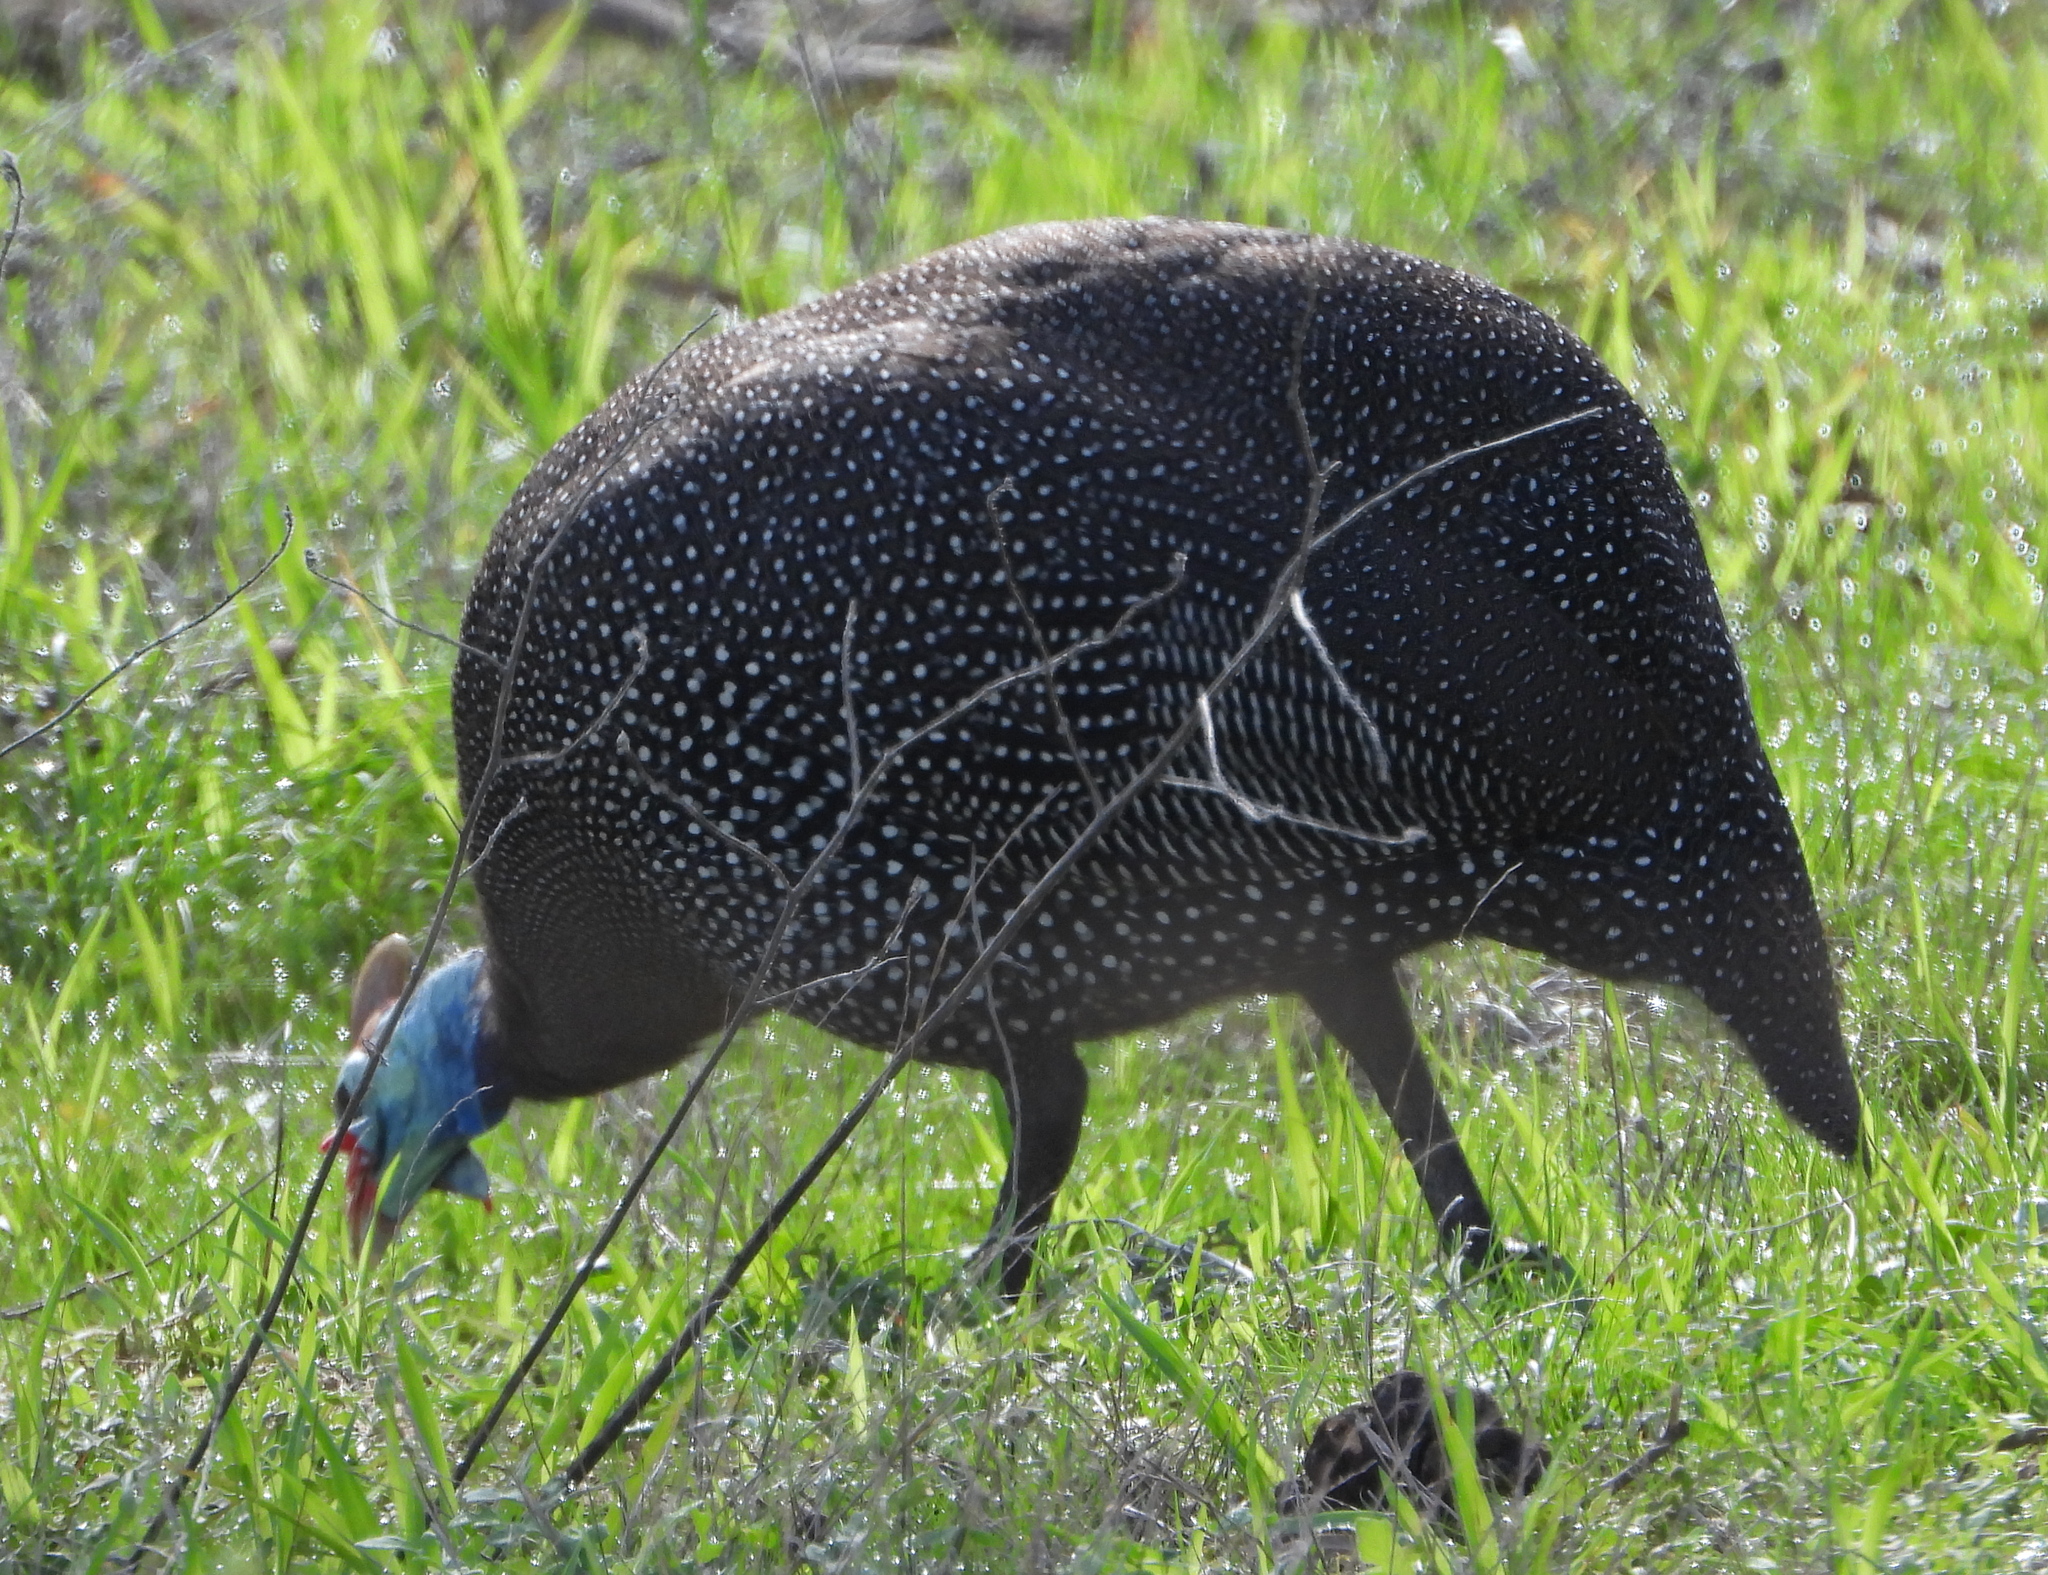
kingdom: Animalia
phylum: Chordata
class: Aves
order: Galliformes
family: Numididae
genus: Numida
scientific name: Numida meleagris
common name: Helmeted guineafowl
